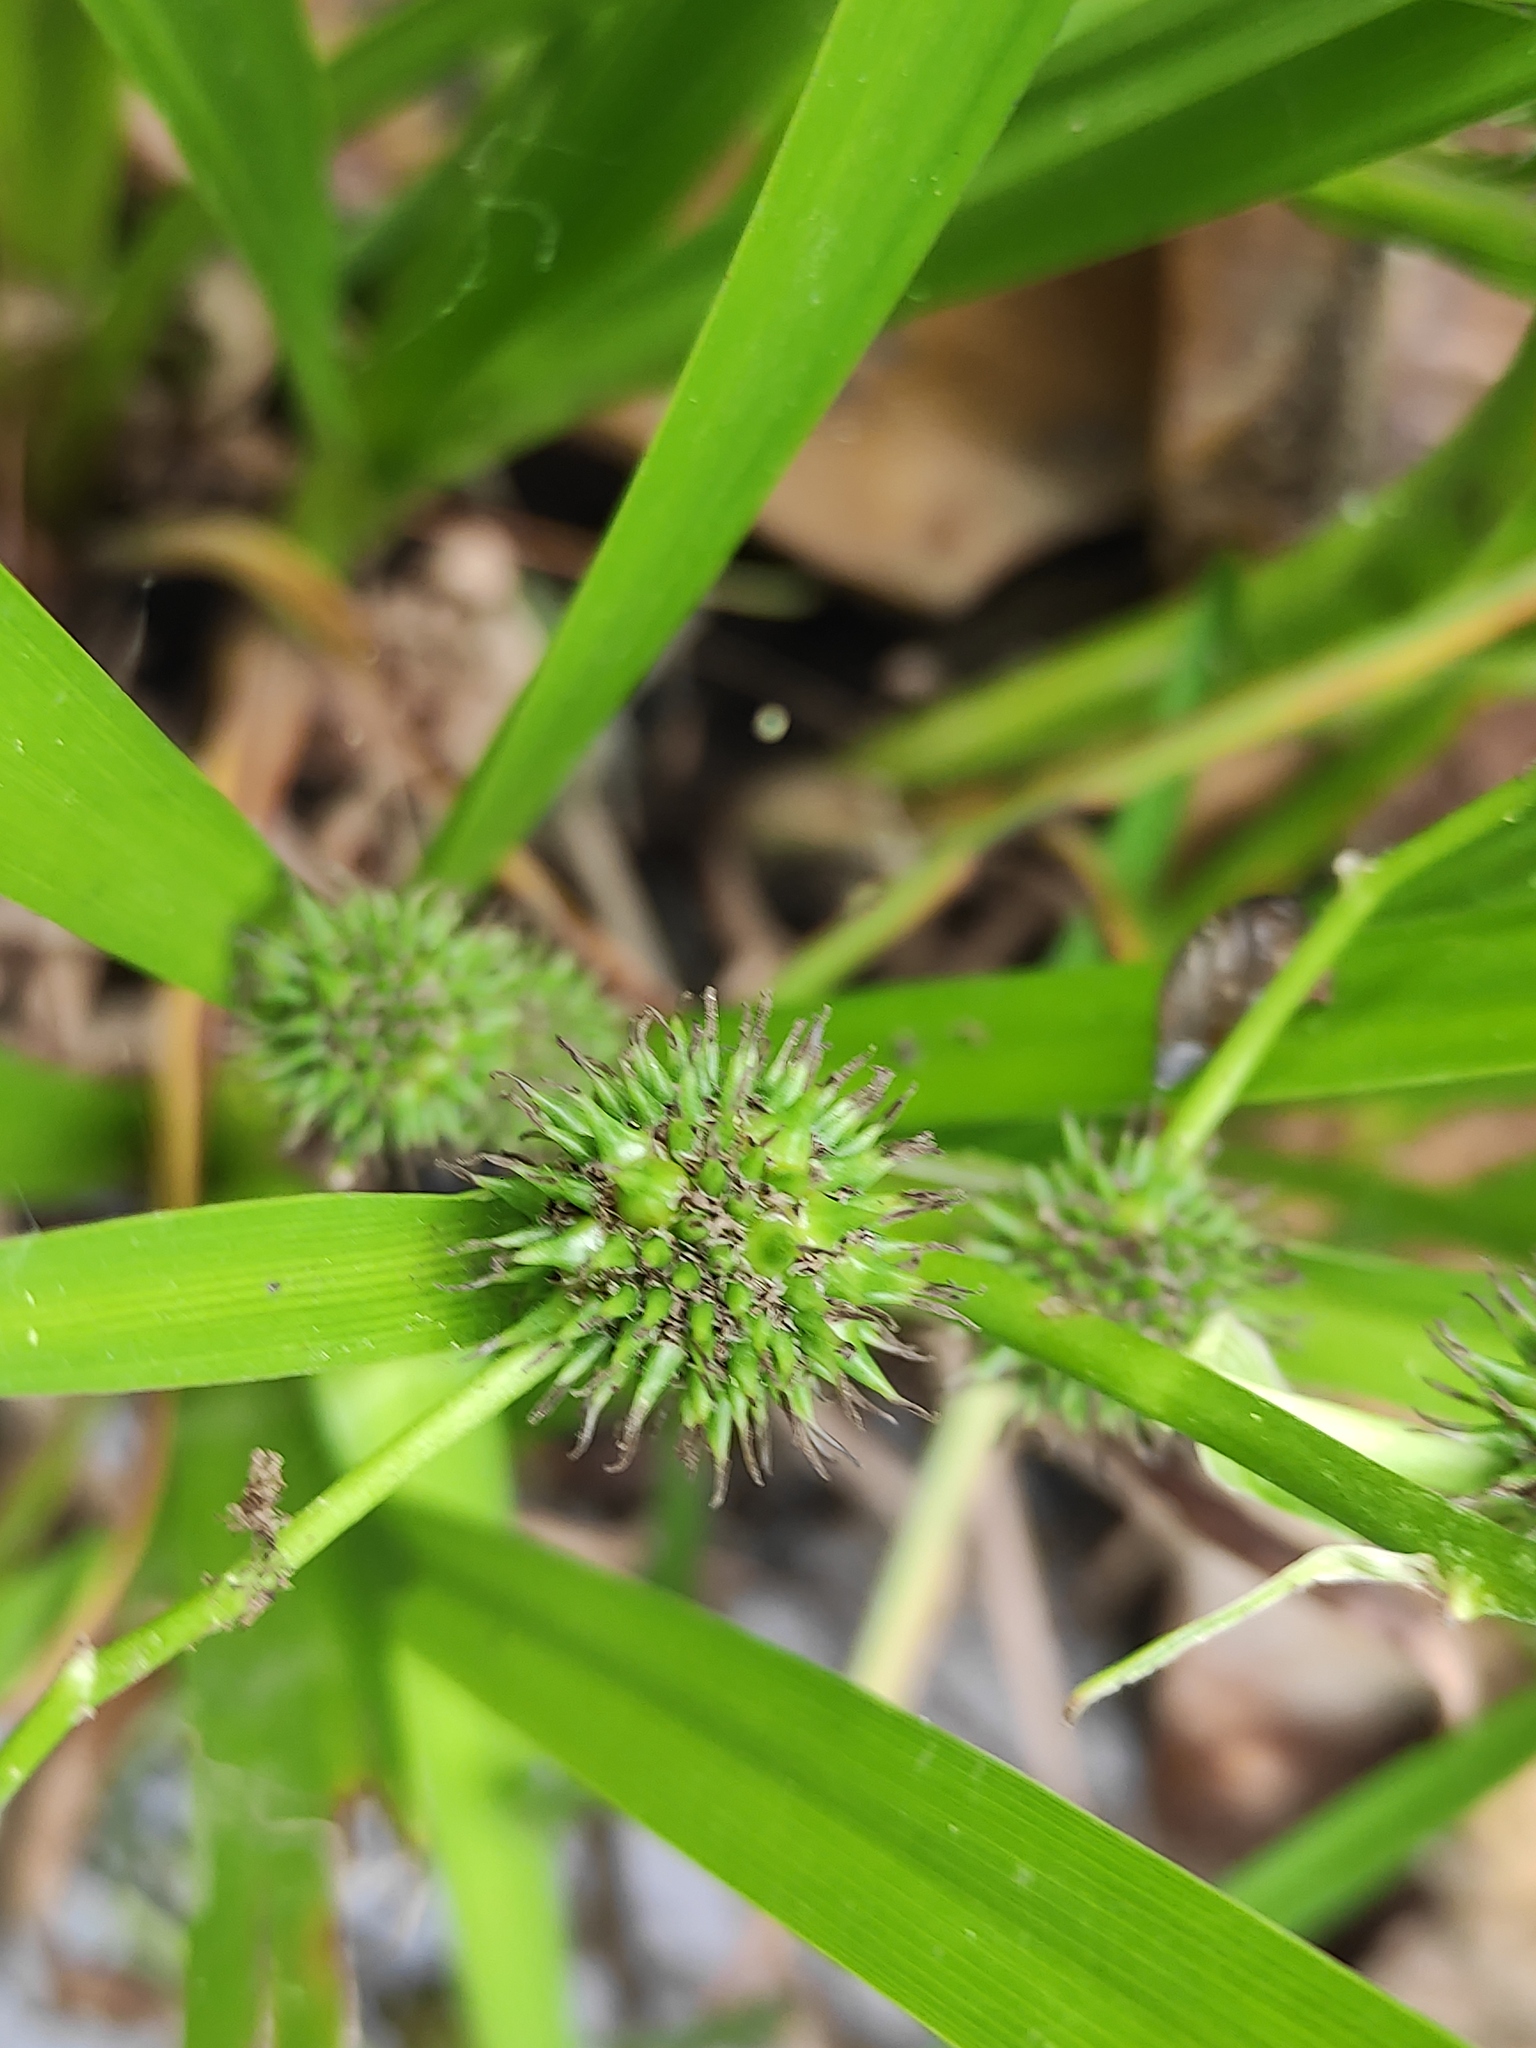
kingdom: Plantae
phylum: Tracheophyta
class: Liliopsida
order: Poales
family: Typhaceae
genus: Sparganium
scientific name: Sparganium erectum
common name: Branched bur-reed
